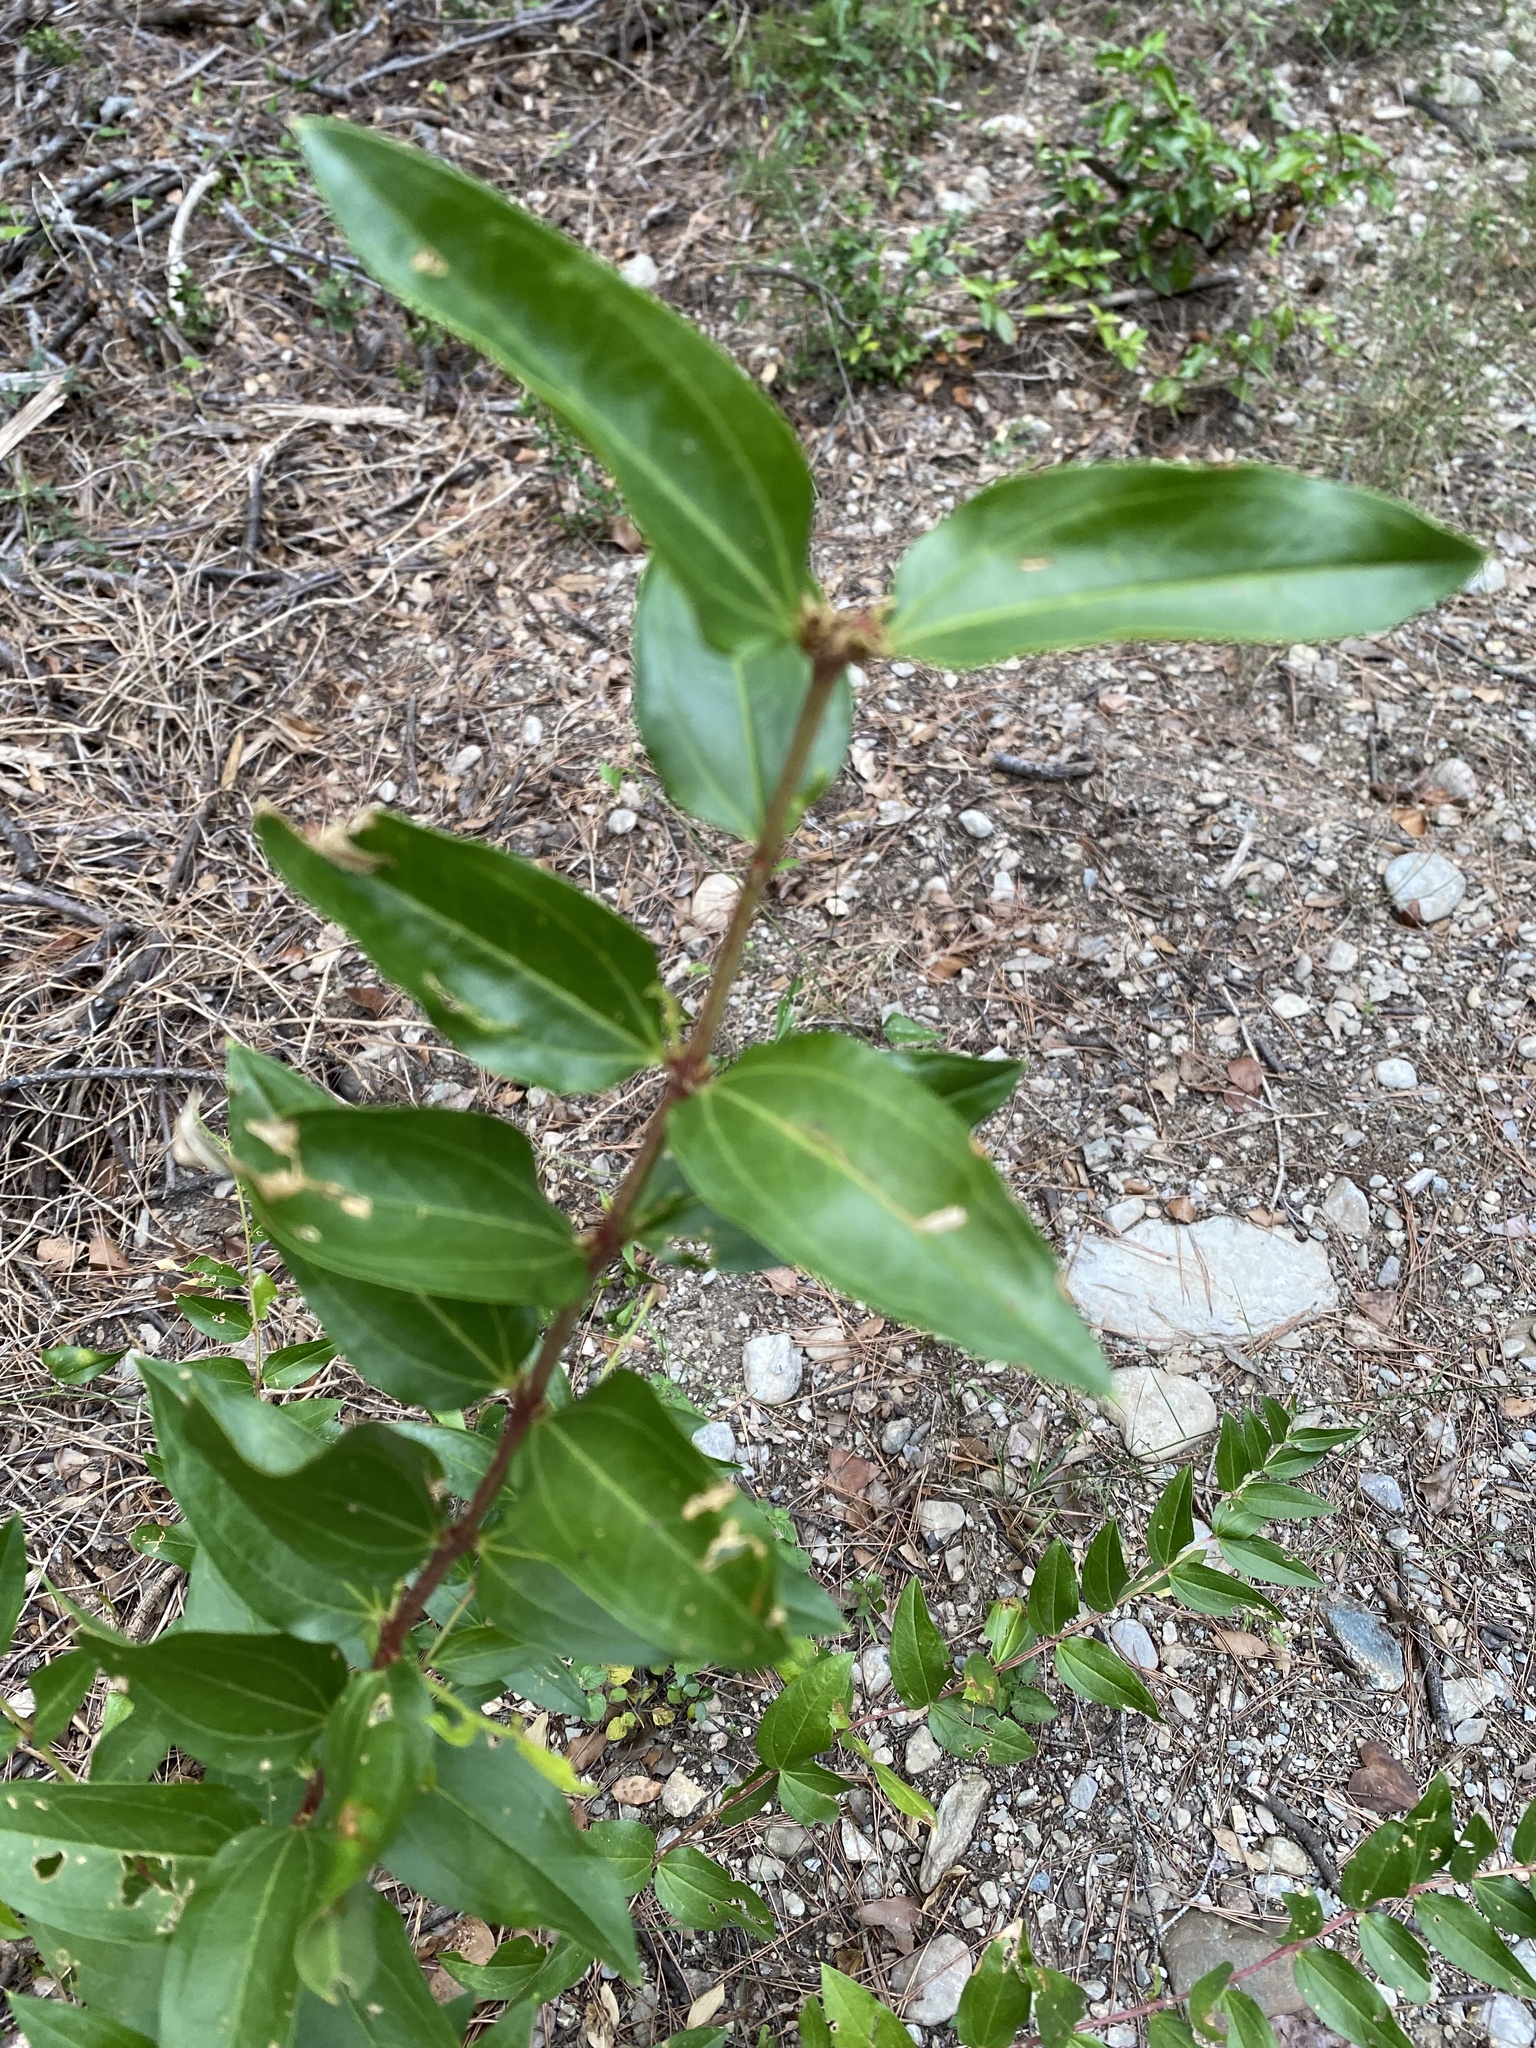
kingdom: Plantae
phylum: Tracheophyta
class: Magnoliopsida
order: Cucurbitales
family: Coriariaceae
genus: Coriaria
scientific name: Coriaria myrtifolia
